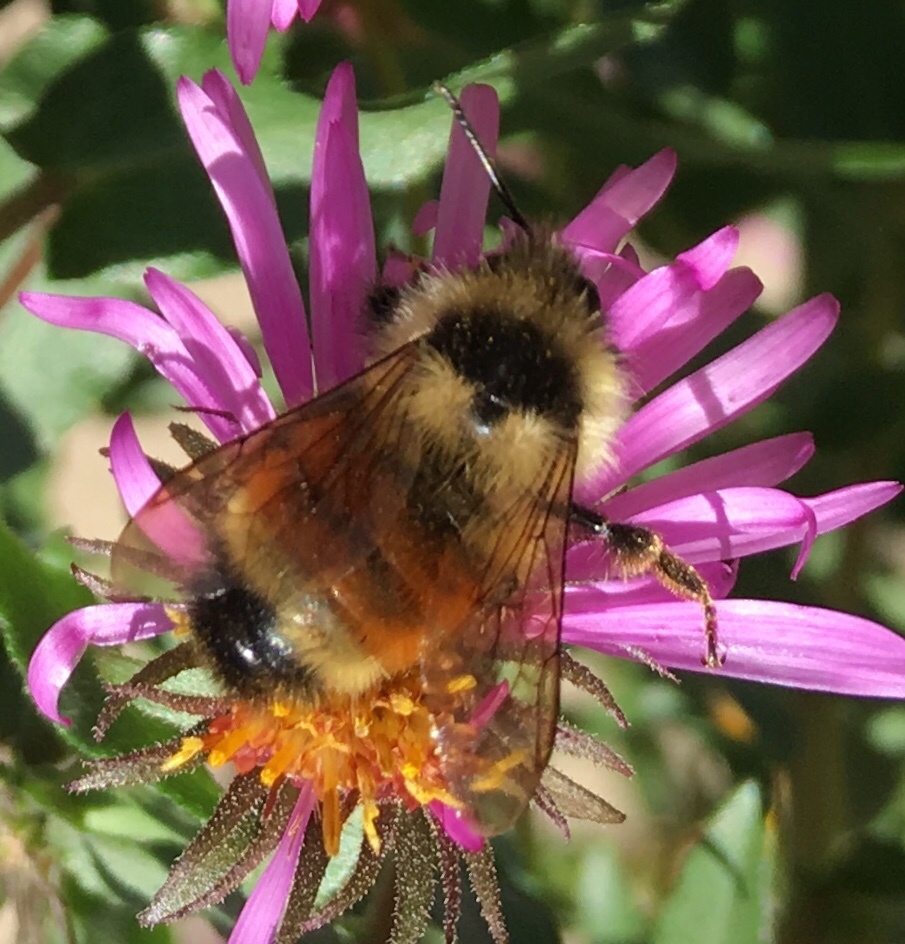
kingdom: Animalia
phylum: Arthropoda
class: Insecta
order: Hymenoptera
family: Apidae
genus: Bombus
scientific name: Bombus ternarius
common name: Tri-colored bumble bee
